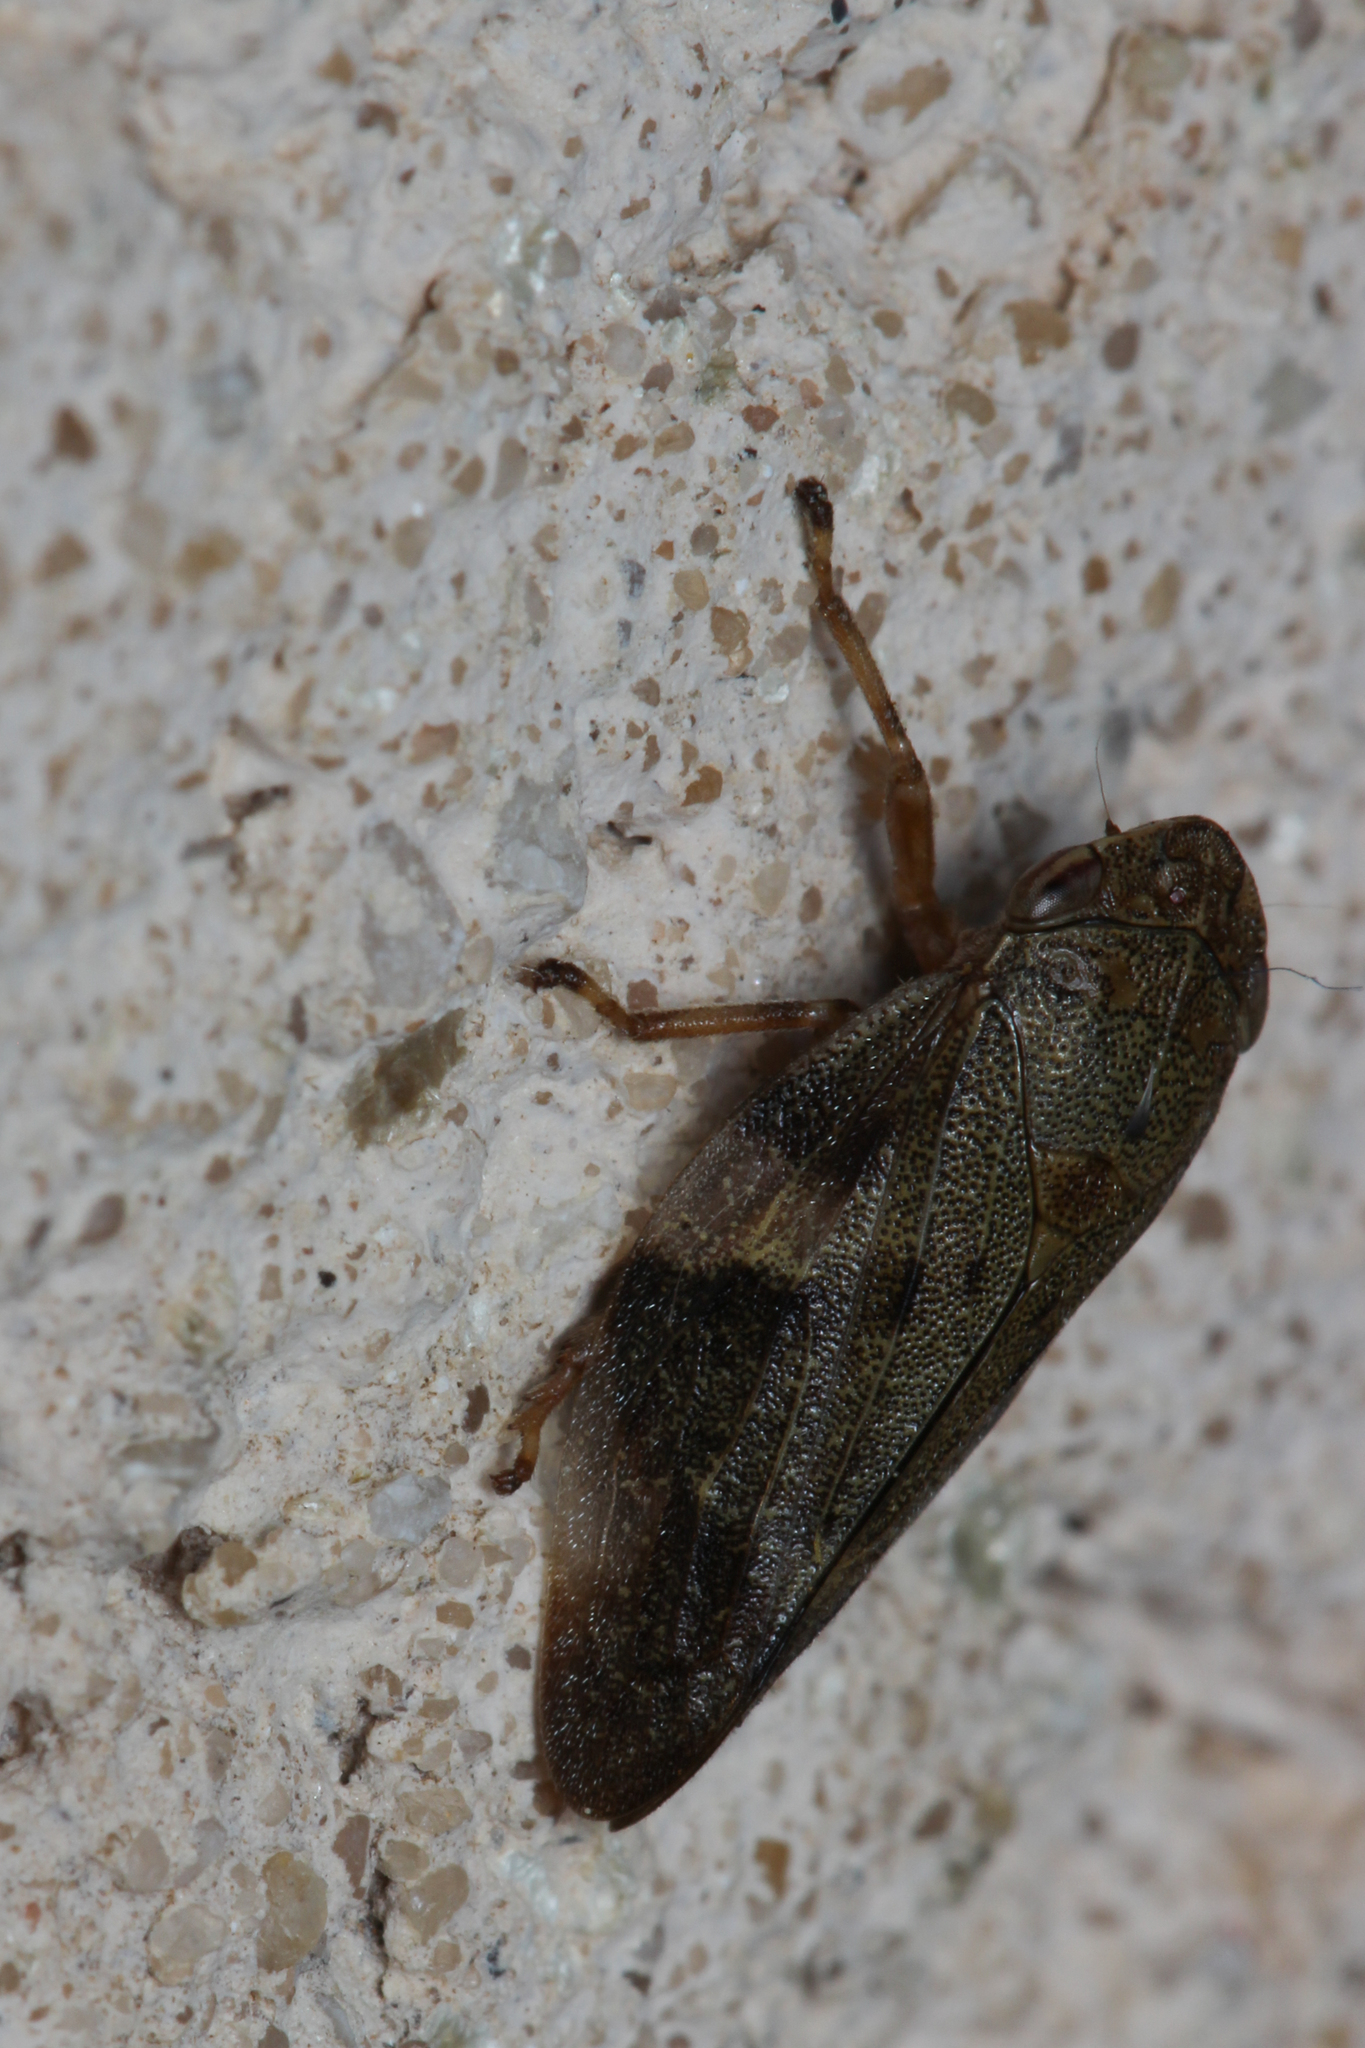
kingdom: Animalia
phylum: Arthropoda
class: Insecta
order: Hemiptera
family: Aphrophoridae
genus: Aphrophora
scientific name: Aphrophora alni
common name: European alder spittlebug
